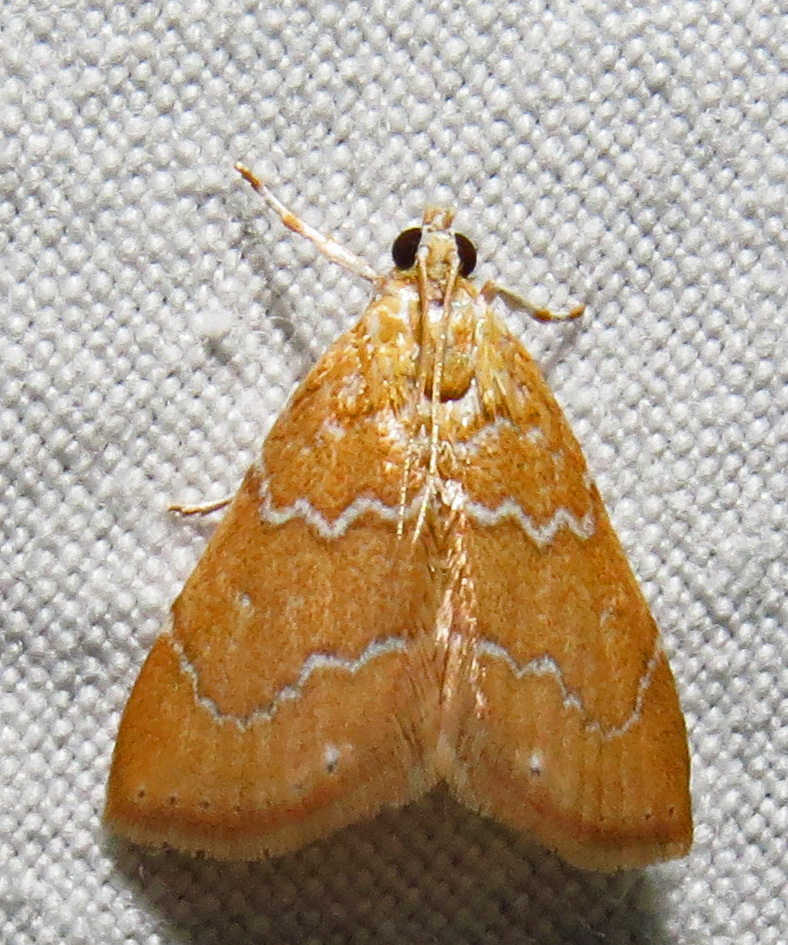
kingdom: Animalia
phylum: Arthropoda
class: Insecta
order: Lepidoptera
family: Crambidae
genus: Glaphyria
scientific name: Glaphyria sesquistrialis
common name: White-roped glaphyria
